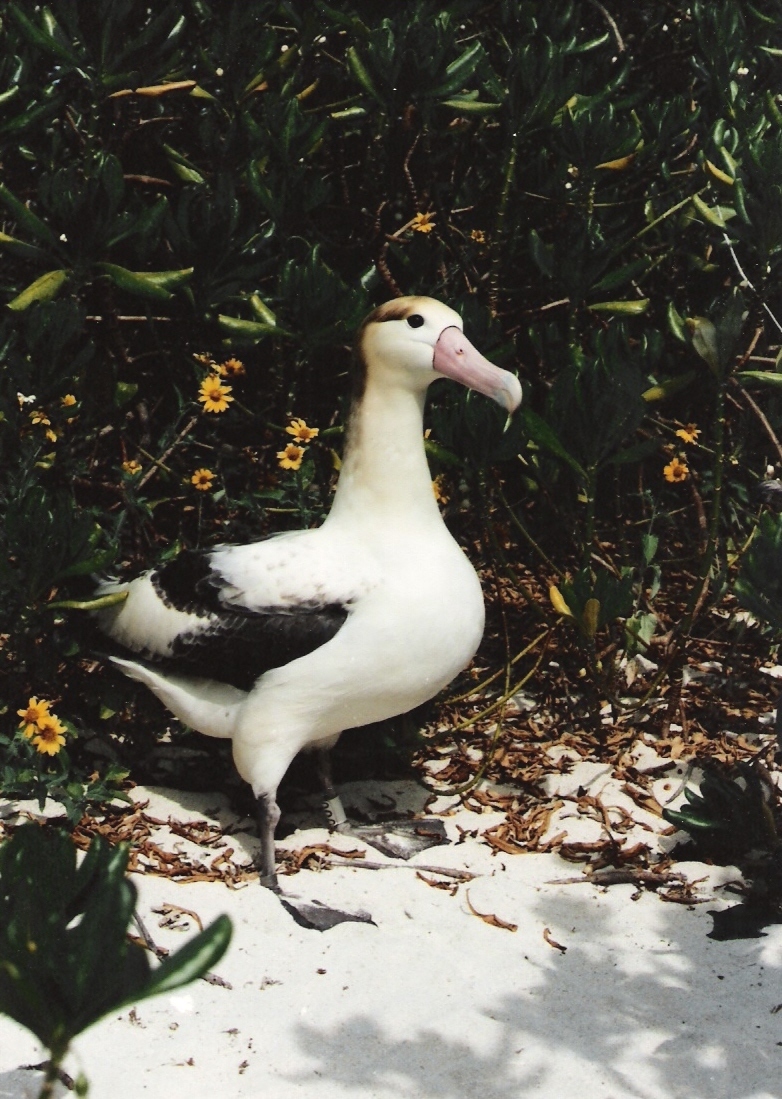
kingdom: Animalia
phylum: Chordata
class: Aves
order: Procellariiformes
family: Diomedeidae
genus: Phoebastria
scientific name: Phoebastria albatrus
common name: Short-tailed albatross
